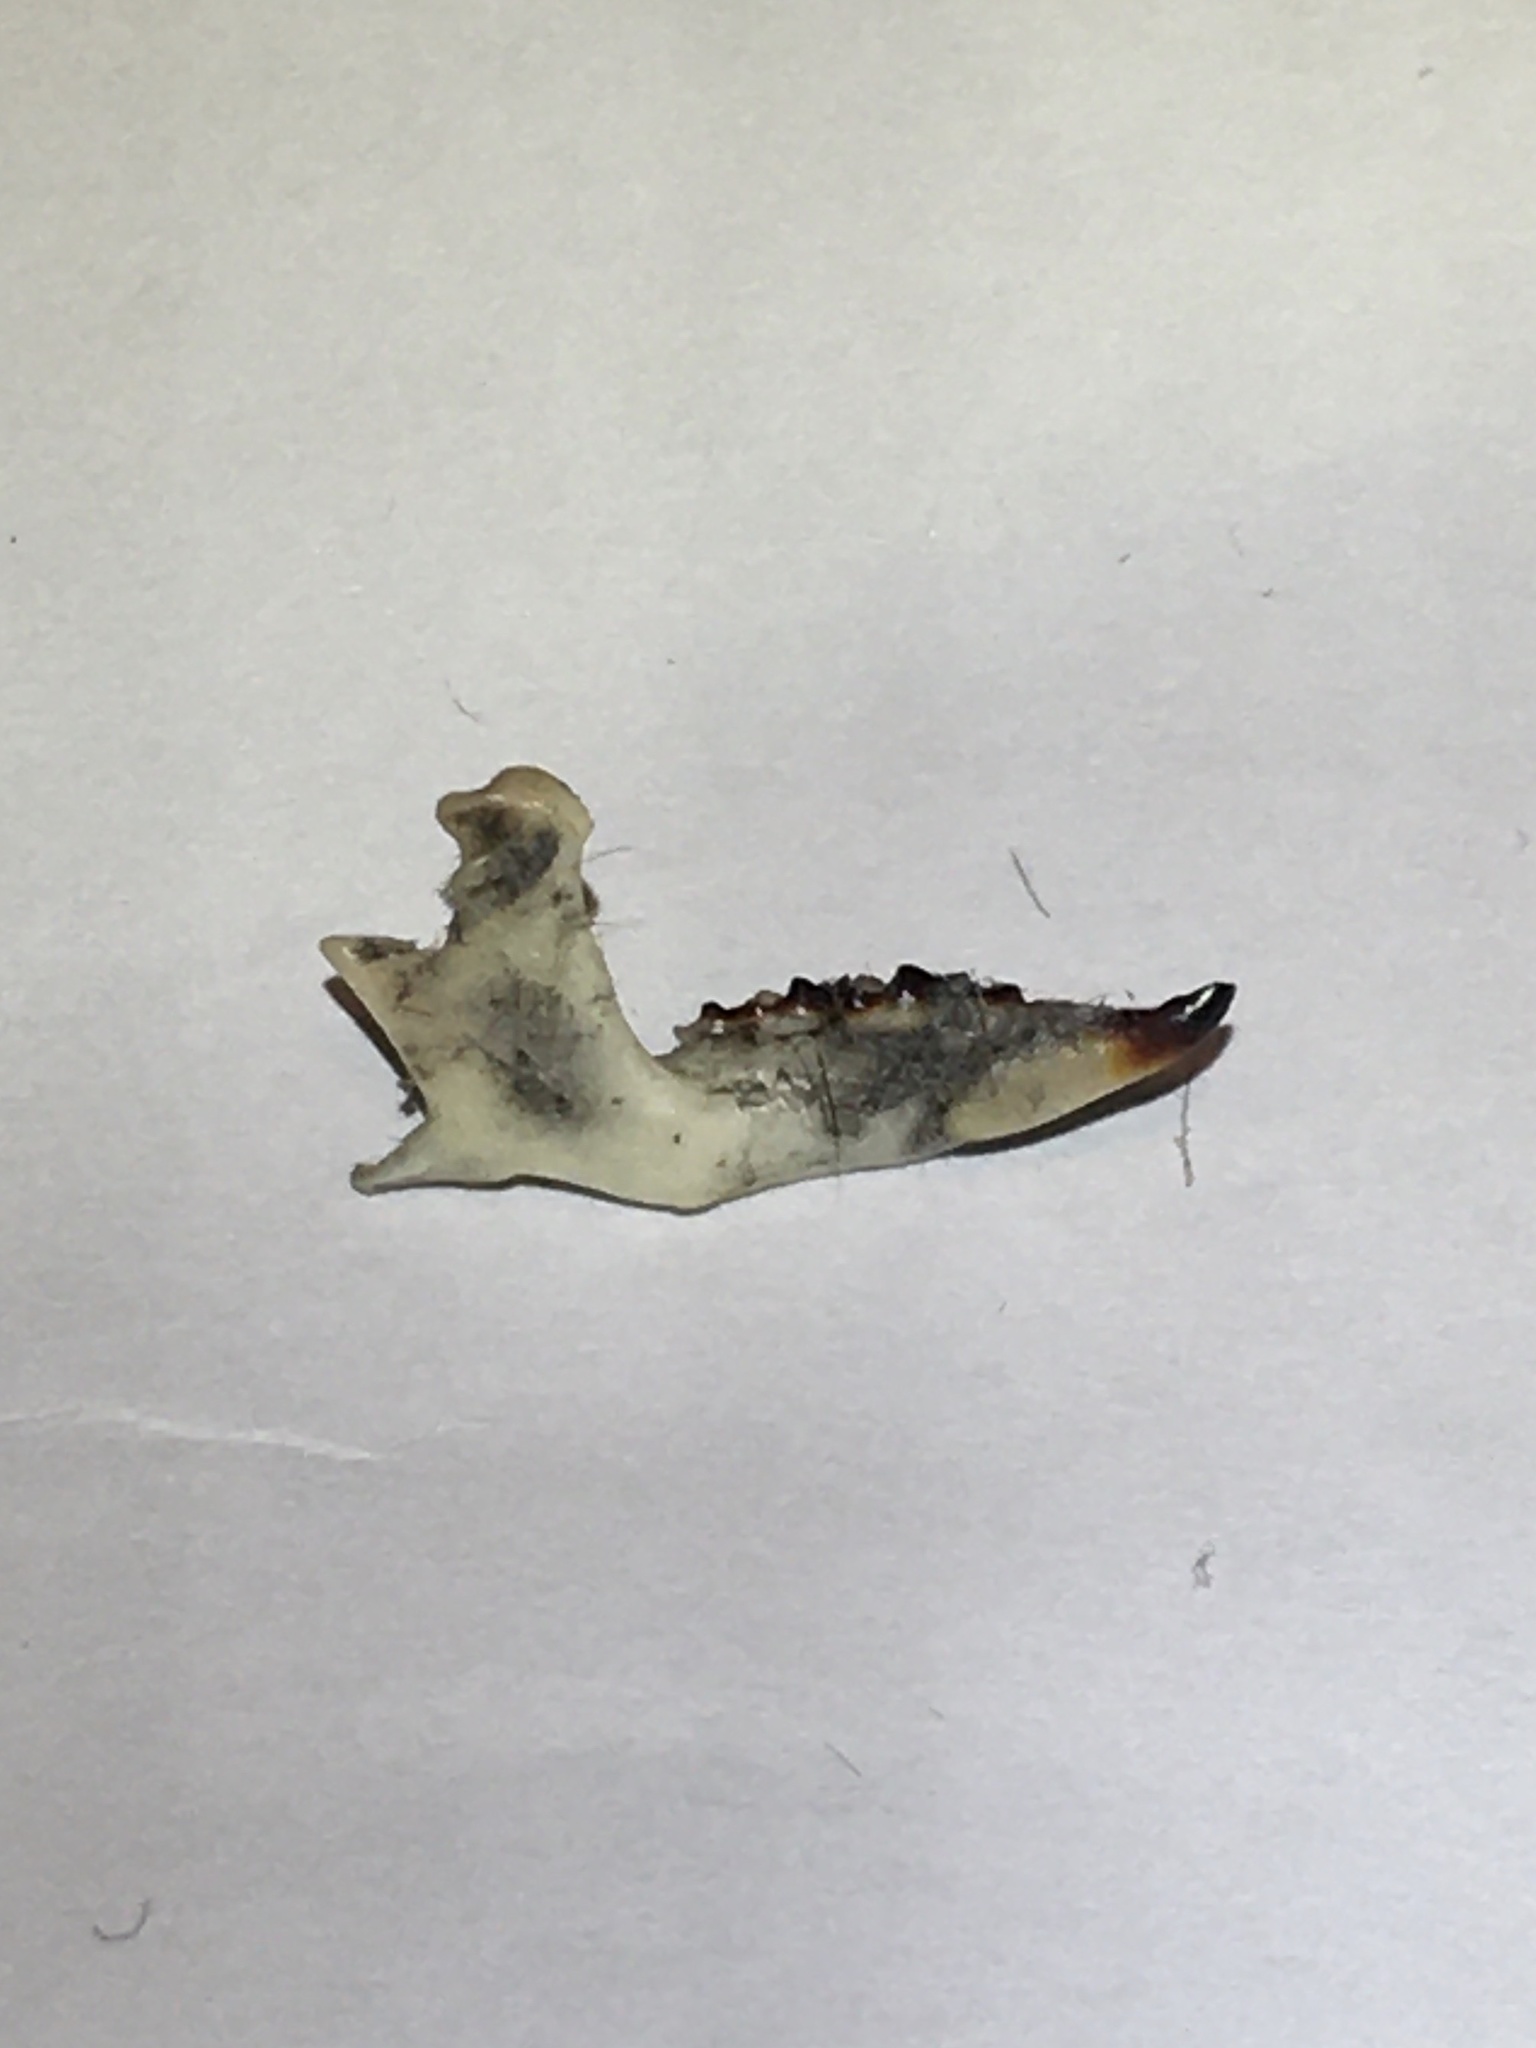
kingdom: Animalia
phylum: Chordata
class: Mammalia
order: Soricomorpha
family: Soricidae
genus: Blarina
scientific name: Blarina brevicauda
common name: Northern short-tailed shrew
